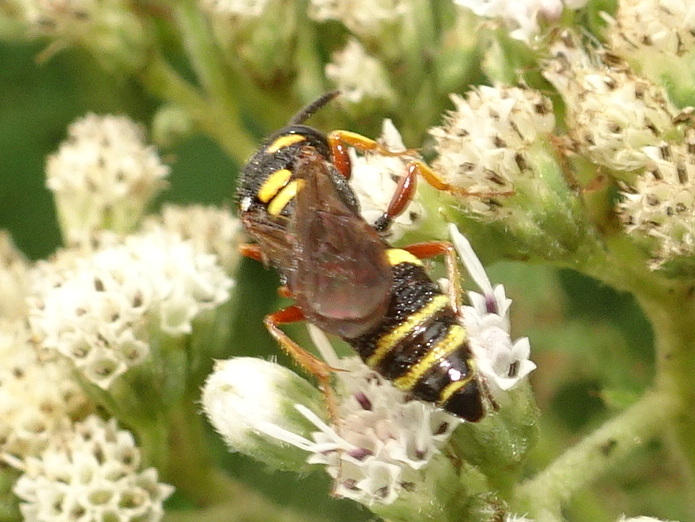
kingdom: Animalia
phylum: Arthropoda
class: Insecta
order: Hymenoptera
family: Crabronidae
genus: Philanthus
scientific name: Philanthus gibbosus
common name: Humped beewolf
